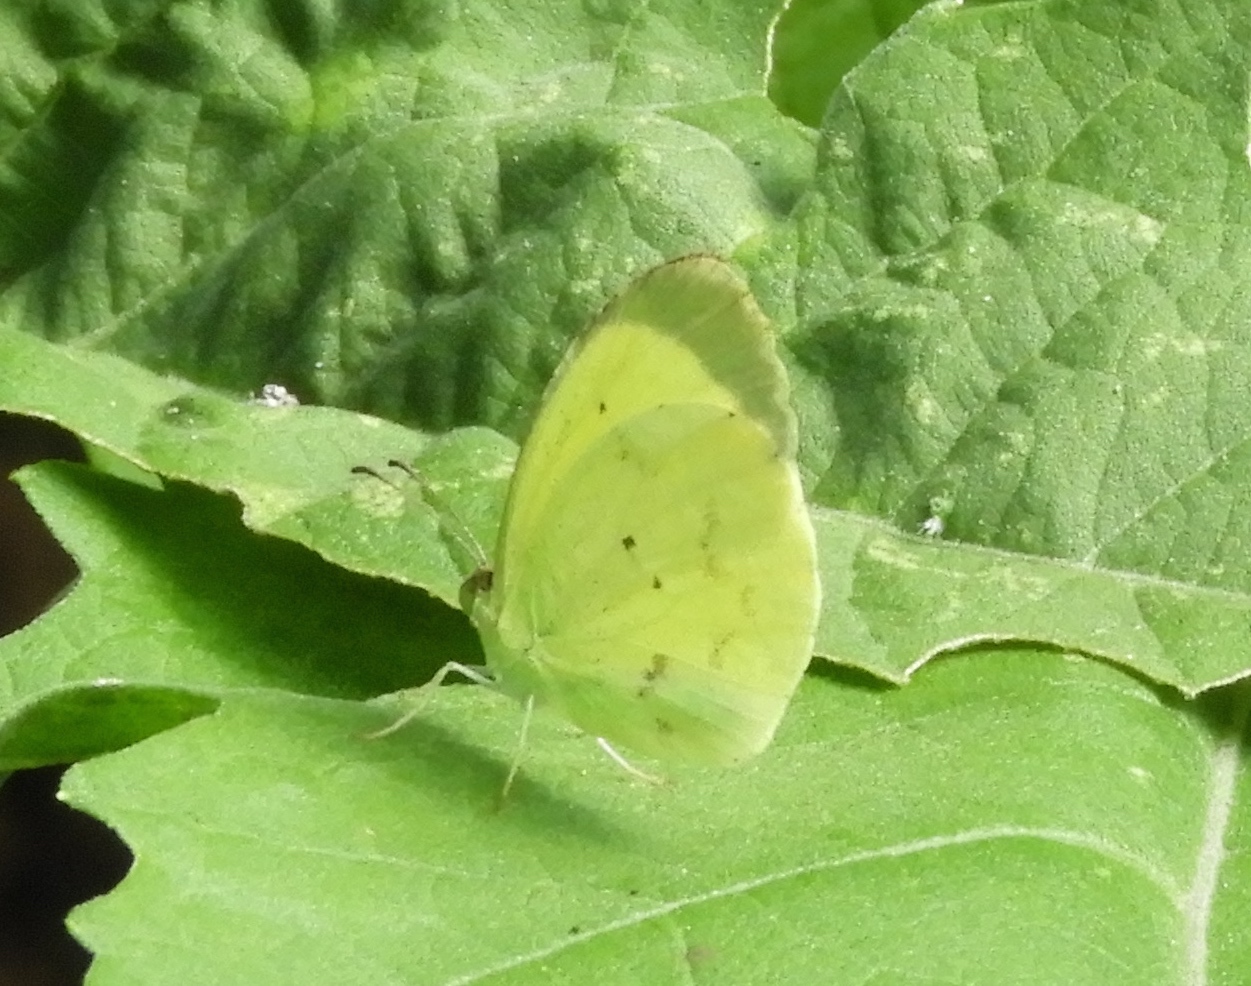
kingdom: Animalia
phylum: Arthropoda
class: Insecta
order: Lepidoptera
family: Pieridae
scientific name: Pieridae
